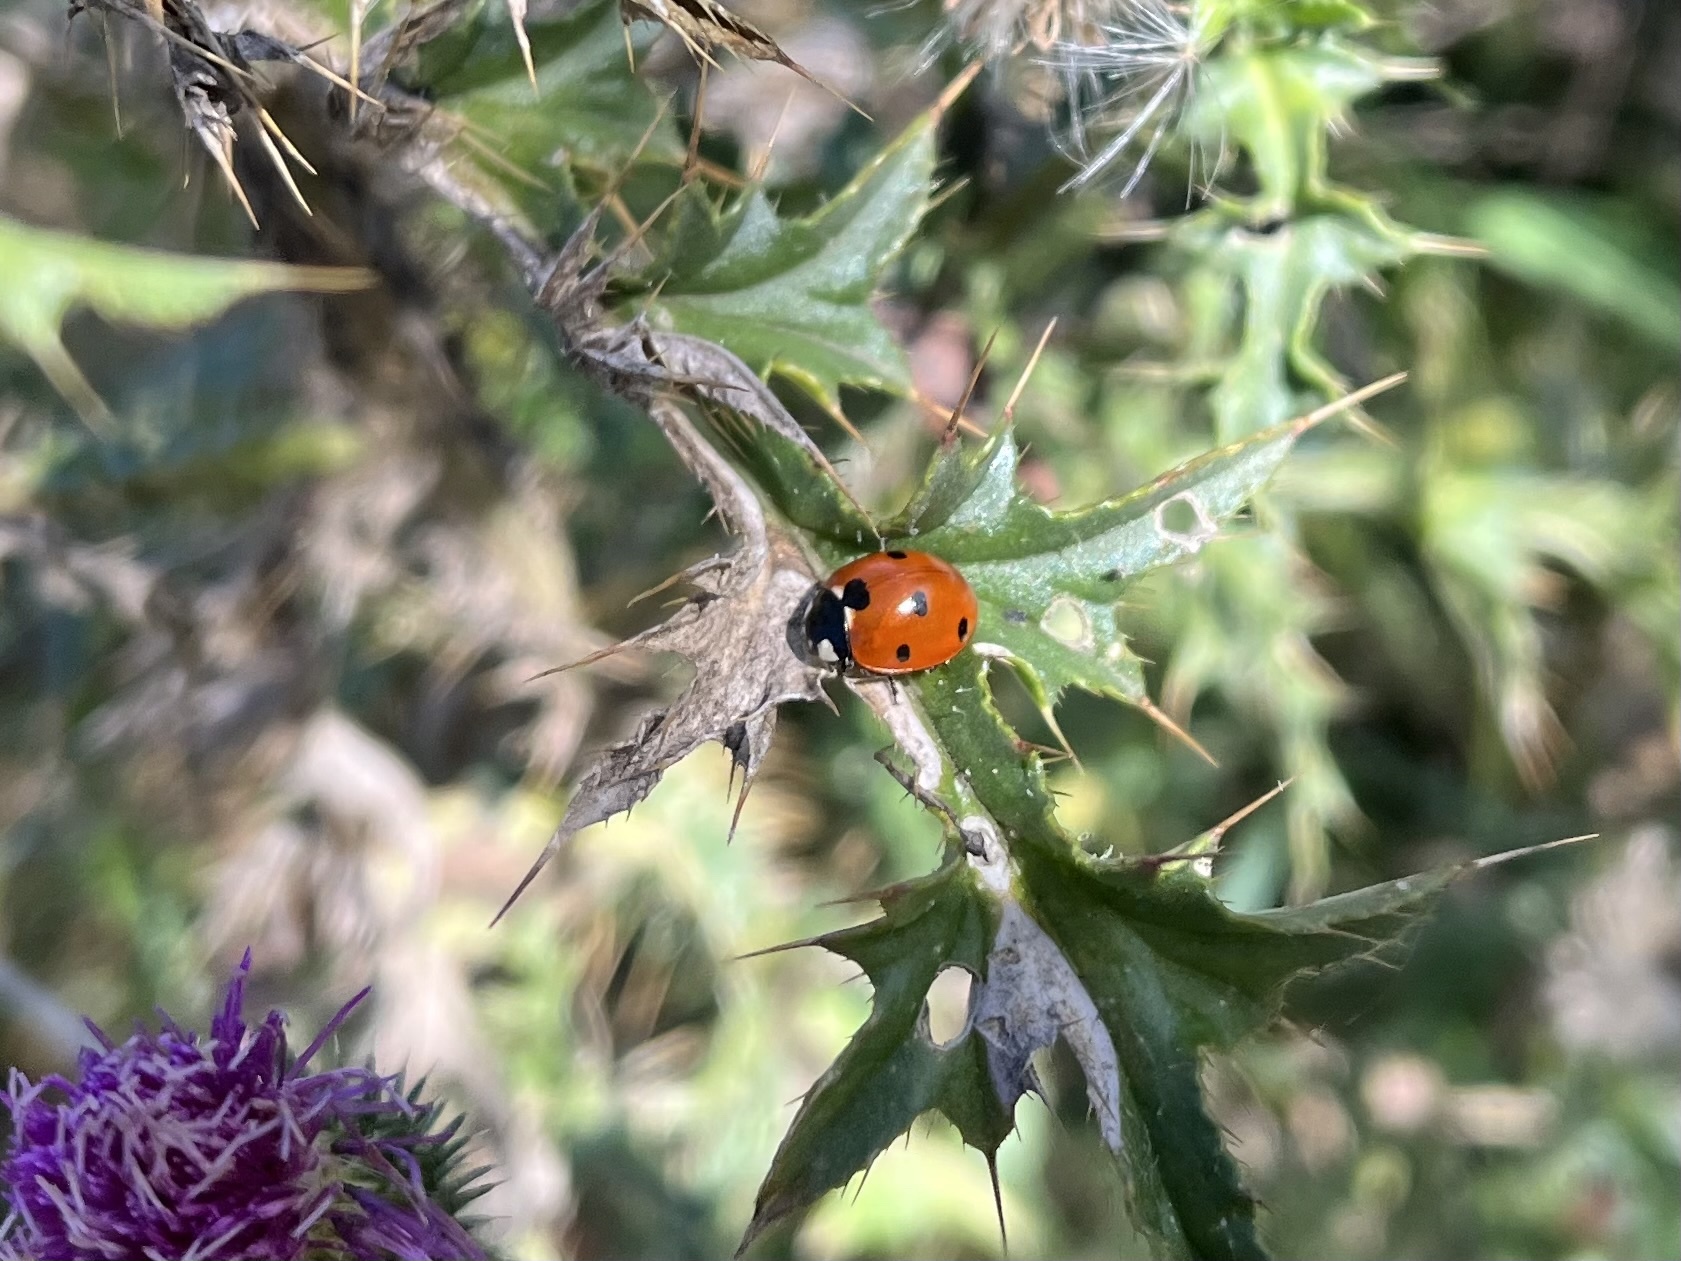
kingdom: Animalia
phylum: Arthropoda
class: Insecta
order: Coleoptera
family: Coccinellidae
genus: Coccinella
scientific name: Coccinella septempunctata
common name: Sevenspotted lady beetle
